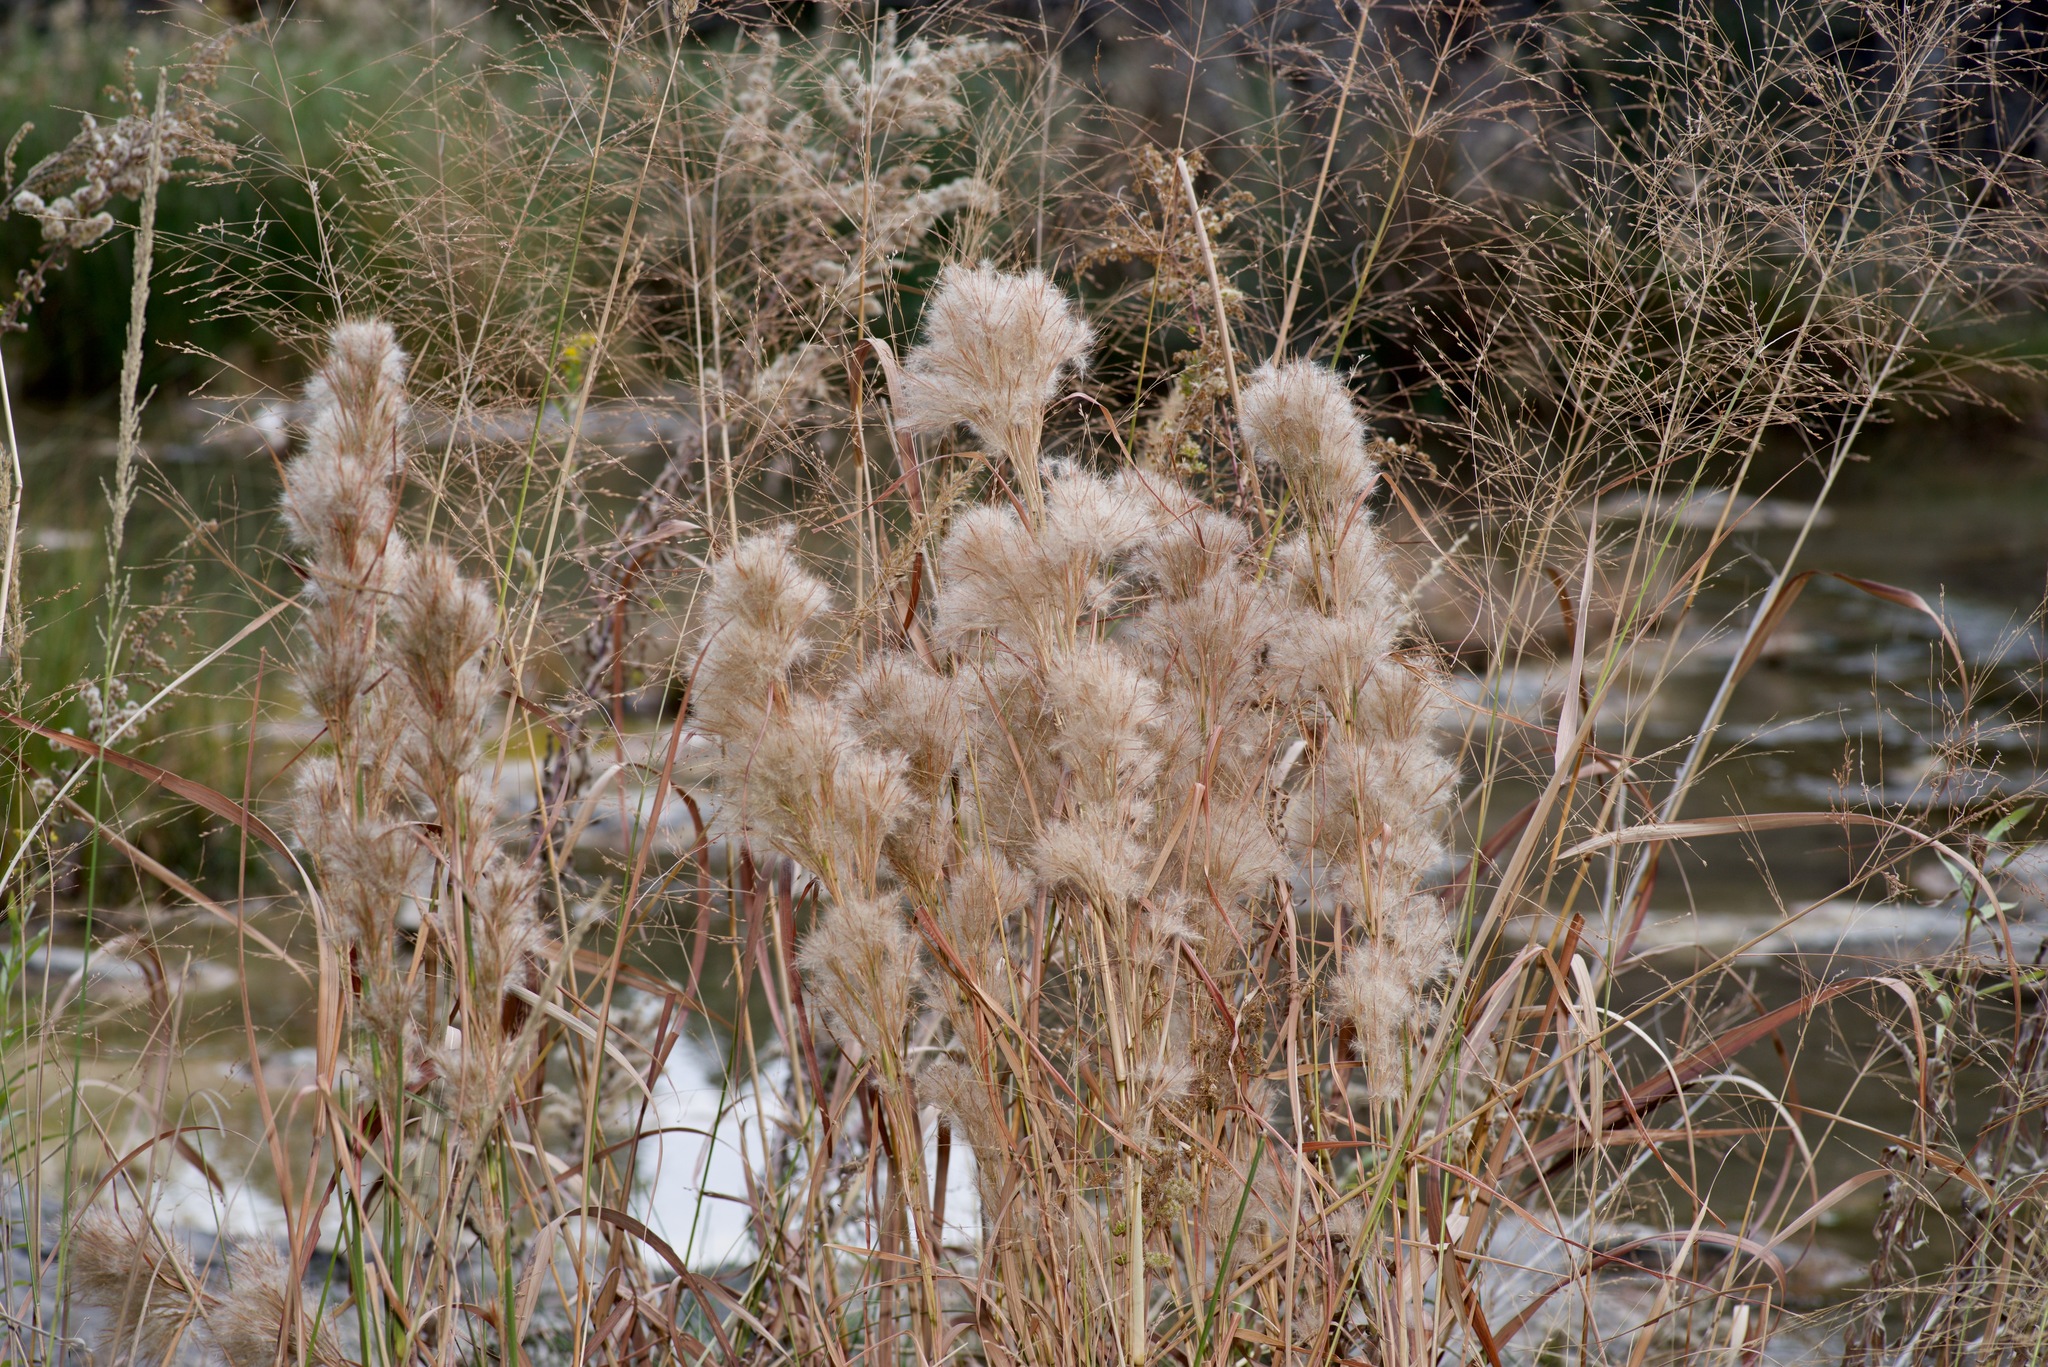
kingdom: Plantae
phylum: Tracheophyta
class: Liliopsida
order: Poales
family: Poaceae
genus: Andropogon
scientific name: Andropogon tenuispatheus
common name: Bushy bluestem
